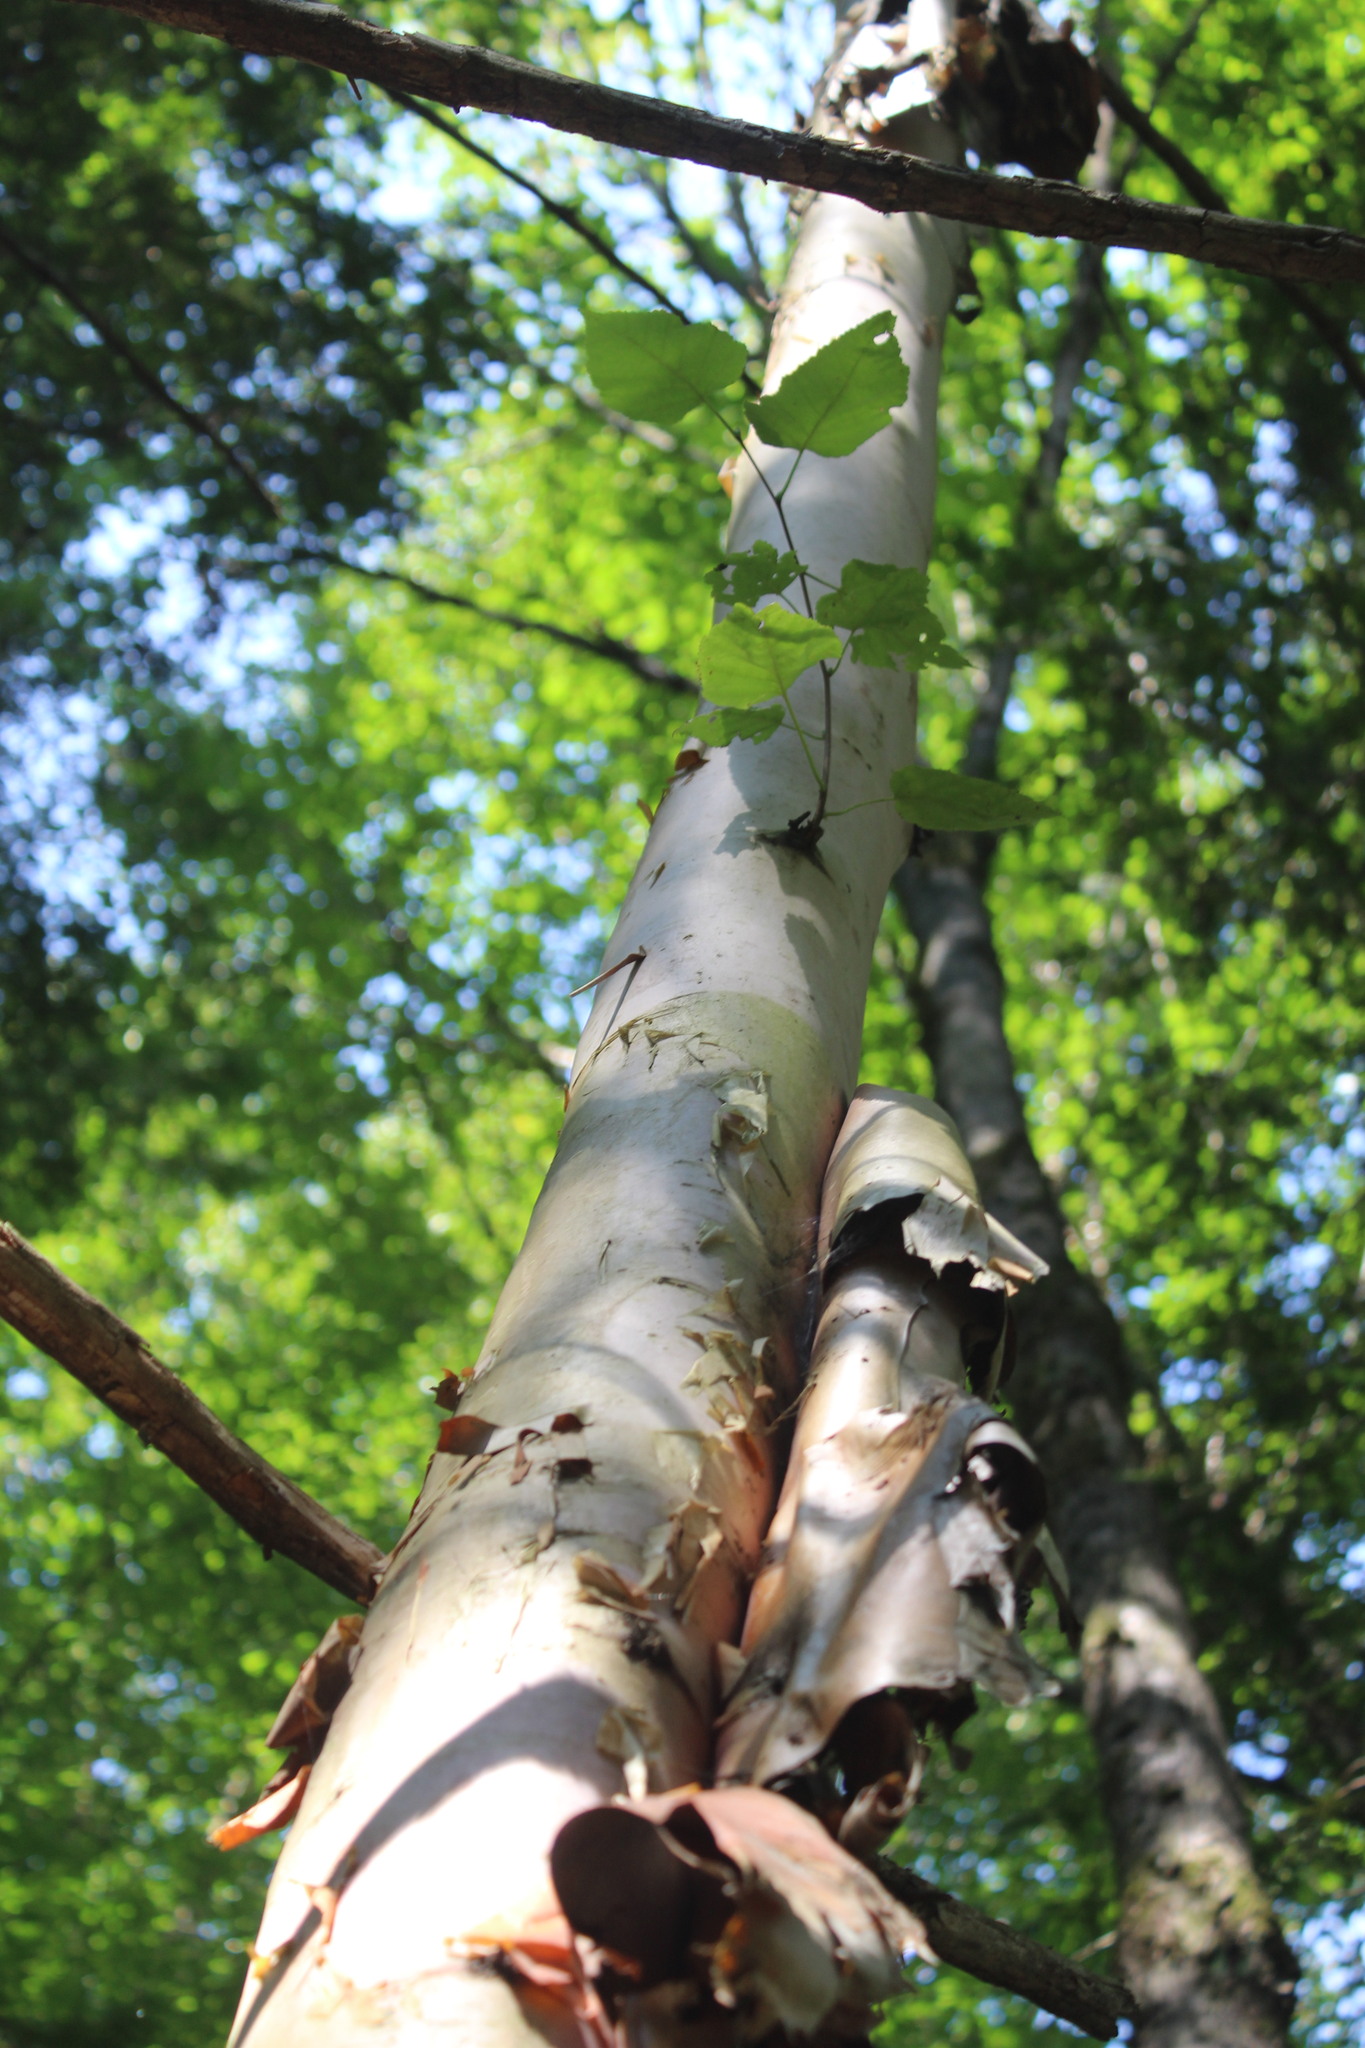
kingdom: Plantae
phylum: Tracheophyta
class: Magnoliopsida
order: Fagales
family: Betulaceae
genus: Betula
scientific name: Betula papyrifera
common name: Paper birch
